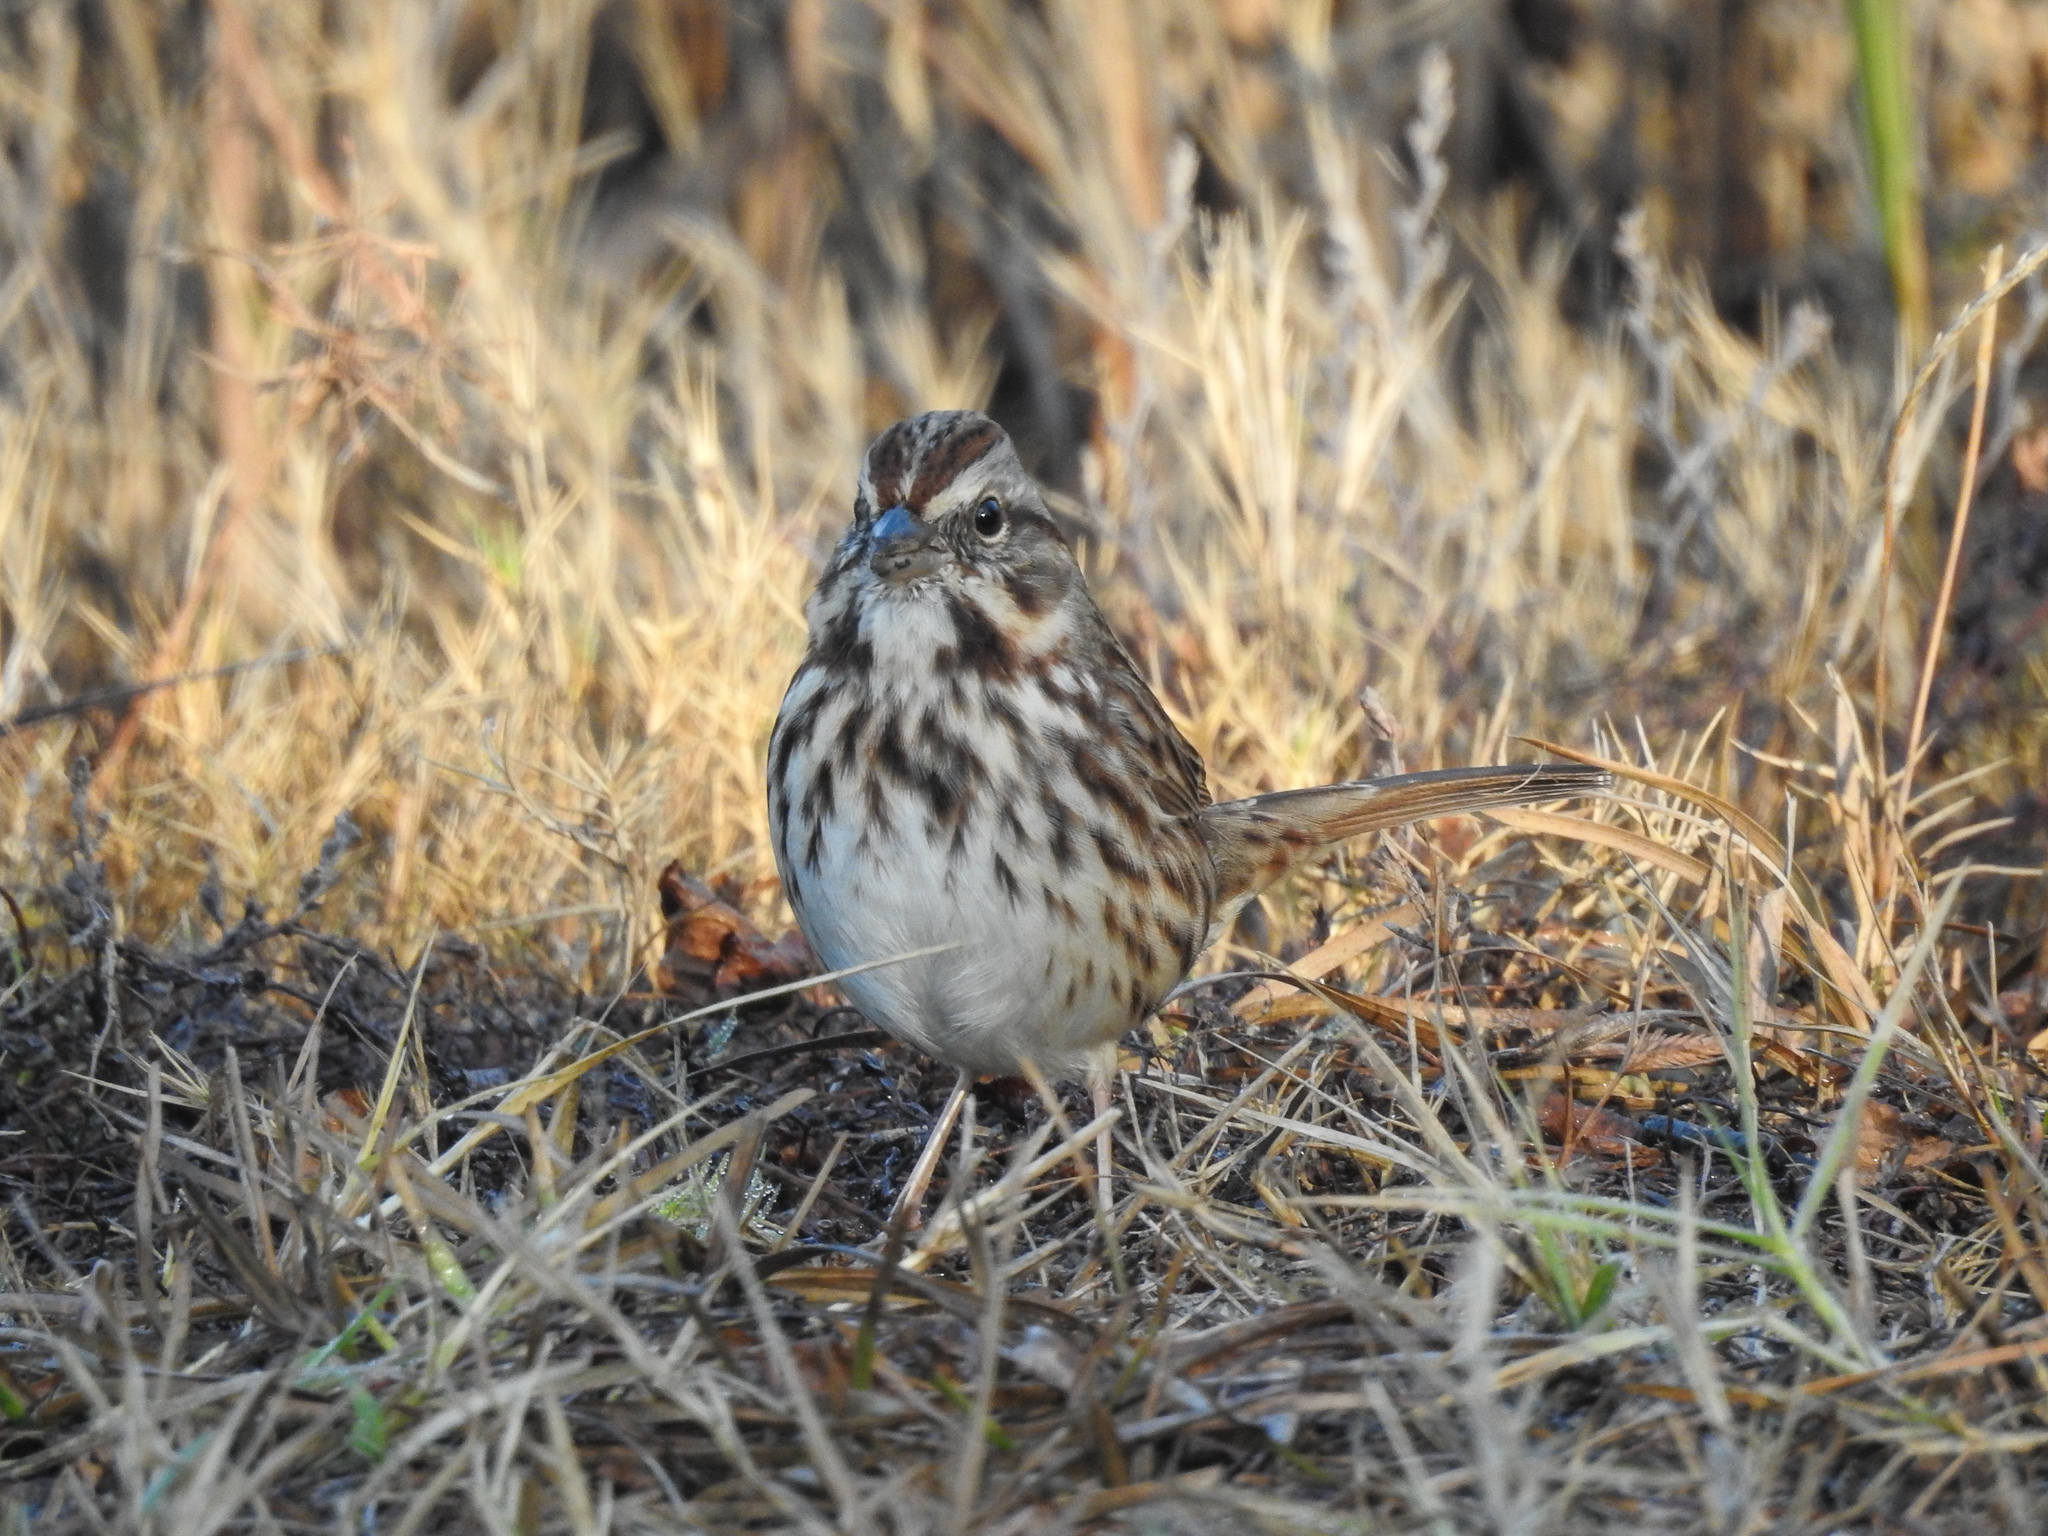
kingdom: Animalia
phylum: Chordata
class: Aves
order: Passeriformes
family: Passerellidae
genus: Melospiza
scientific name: Melospiza melodia
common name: Song sparrow
